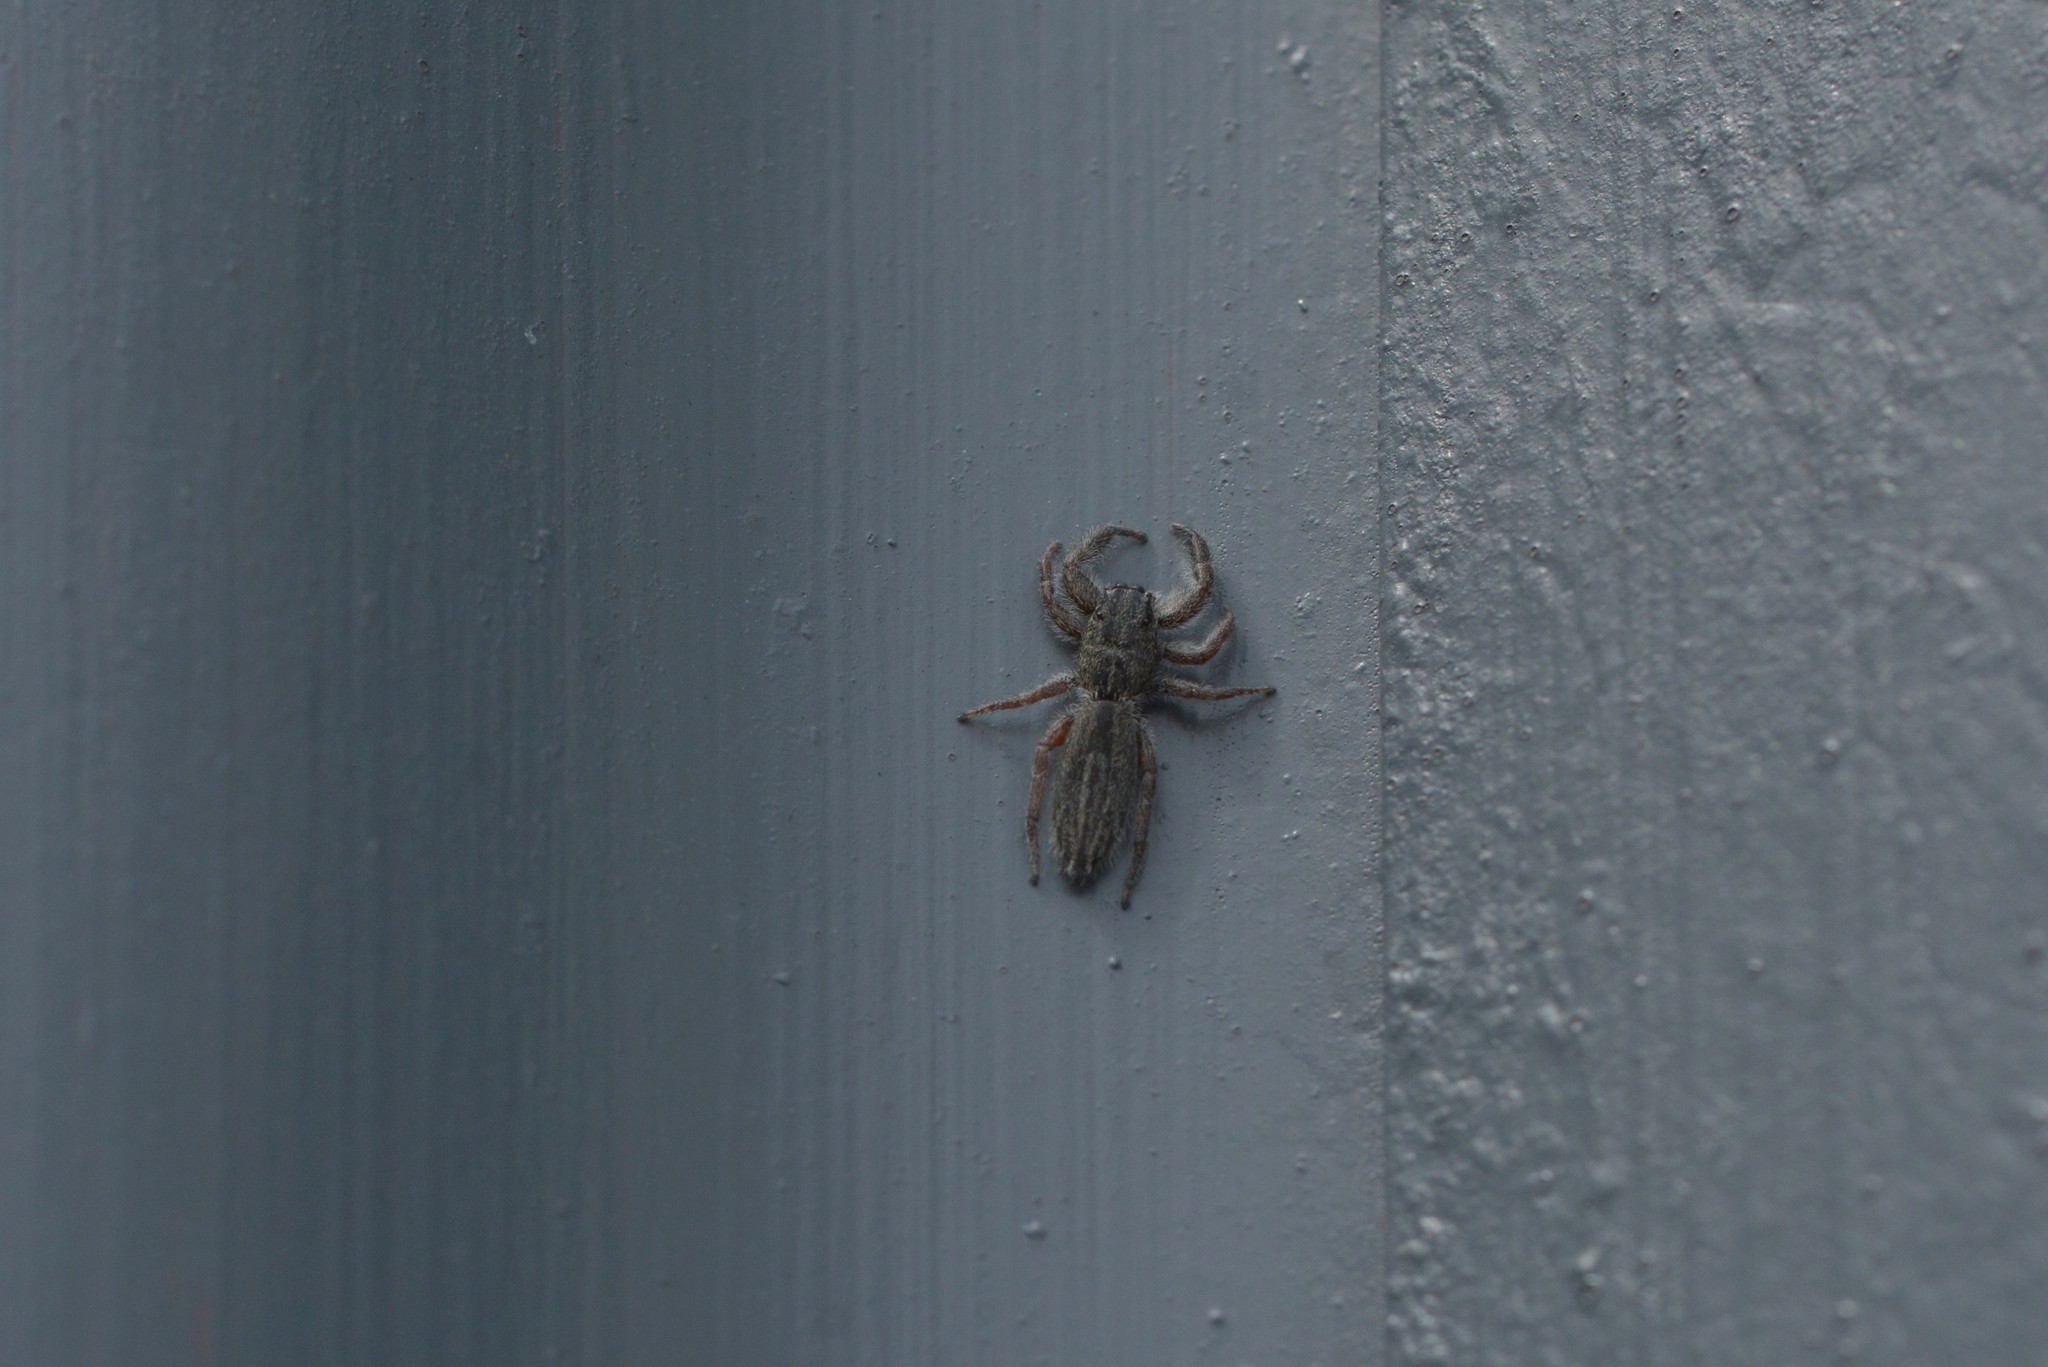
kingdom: Animalia
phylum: Arthropoda
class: Arachnida
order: Araneae
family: Salticidae
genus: Holoplatys
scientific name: Holoplatys apressus
